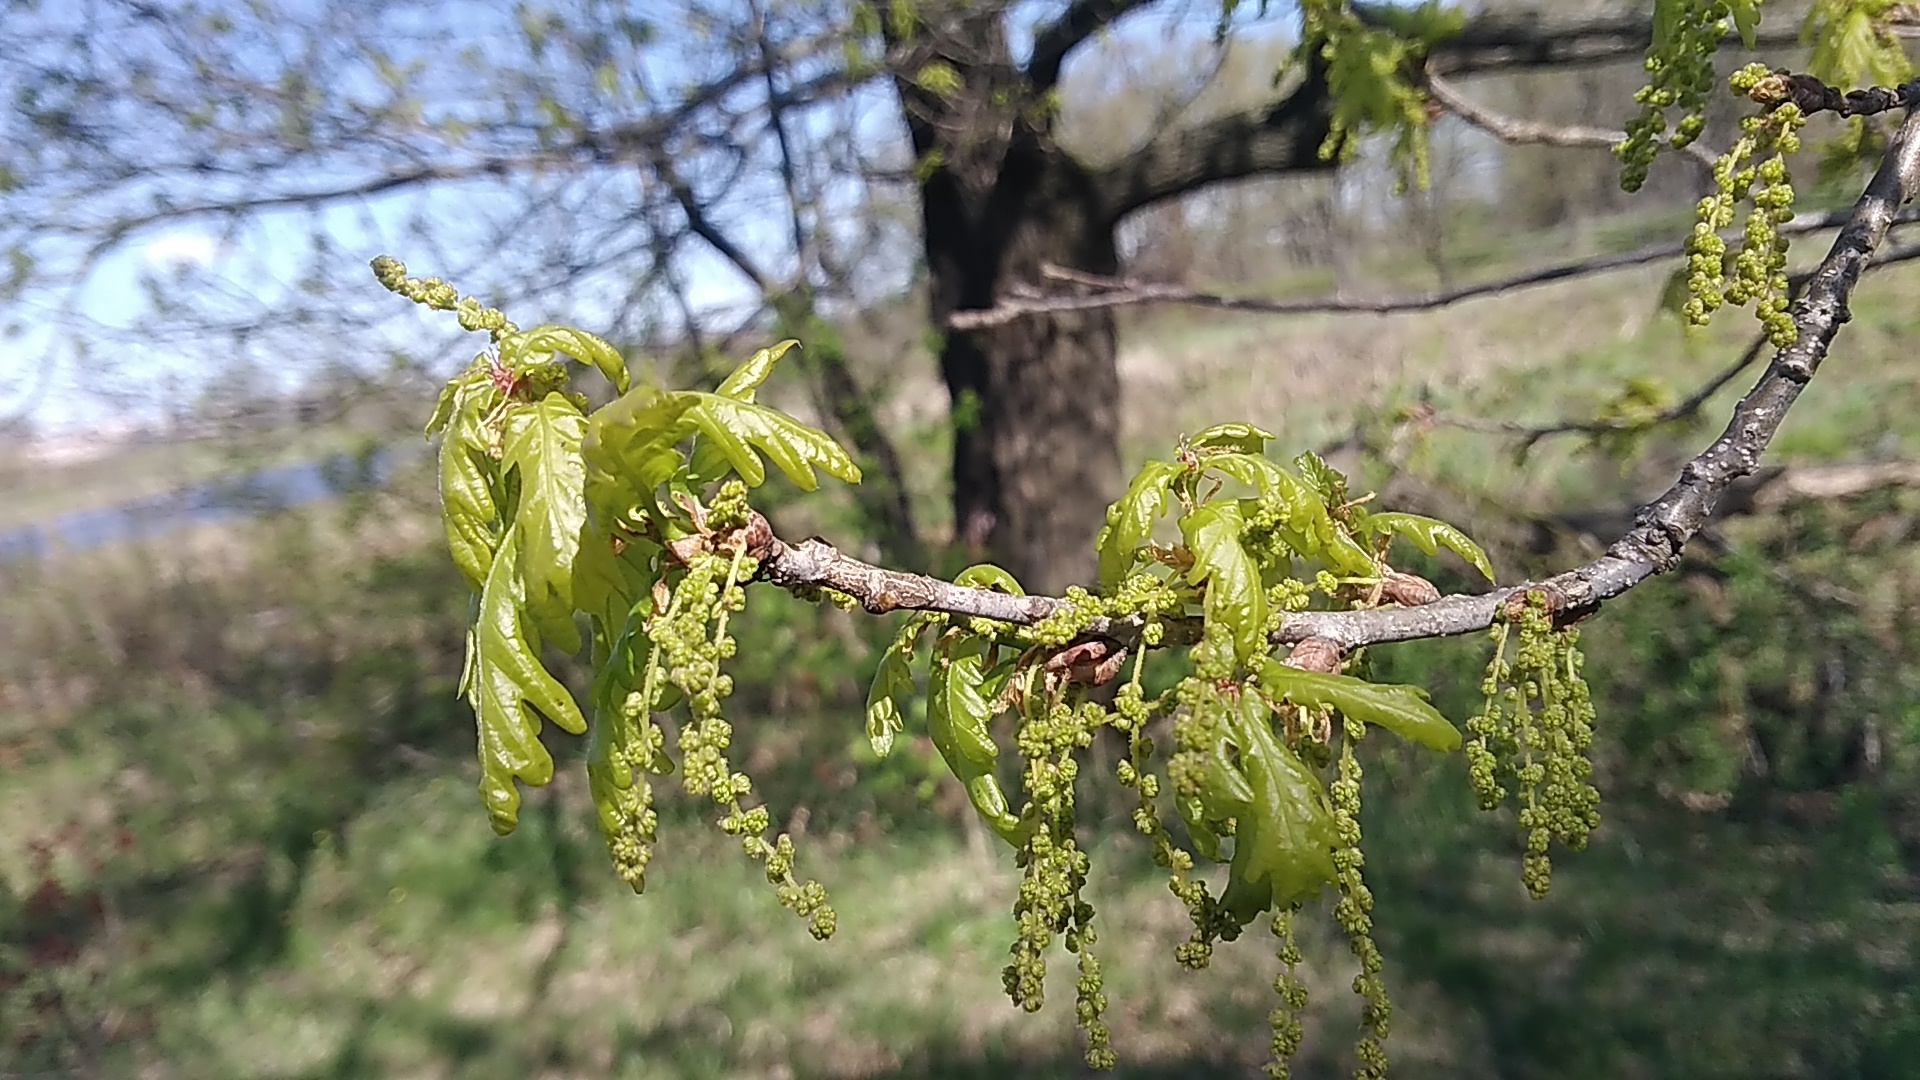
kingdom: Plantae
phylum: Tracheophyta
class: Magnoliopsida
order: Fagales
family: Fagaceae
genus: Quercus
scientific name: Quercus robur
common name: Pedunculate oak
